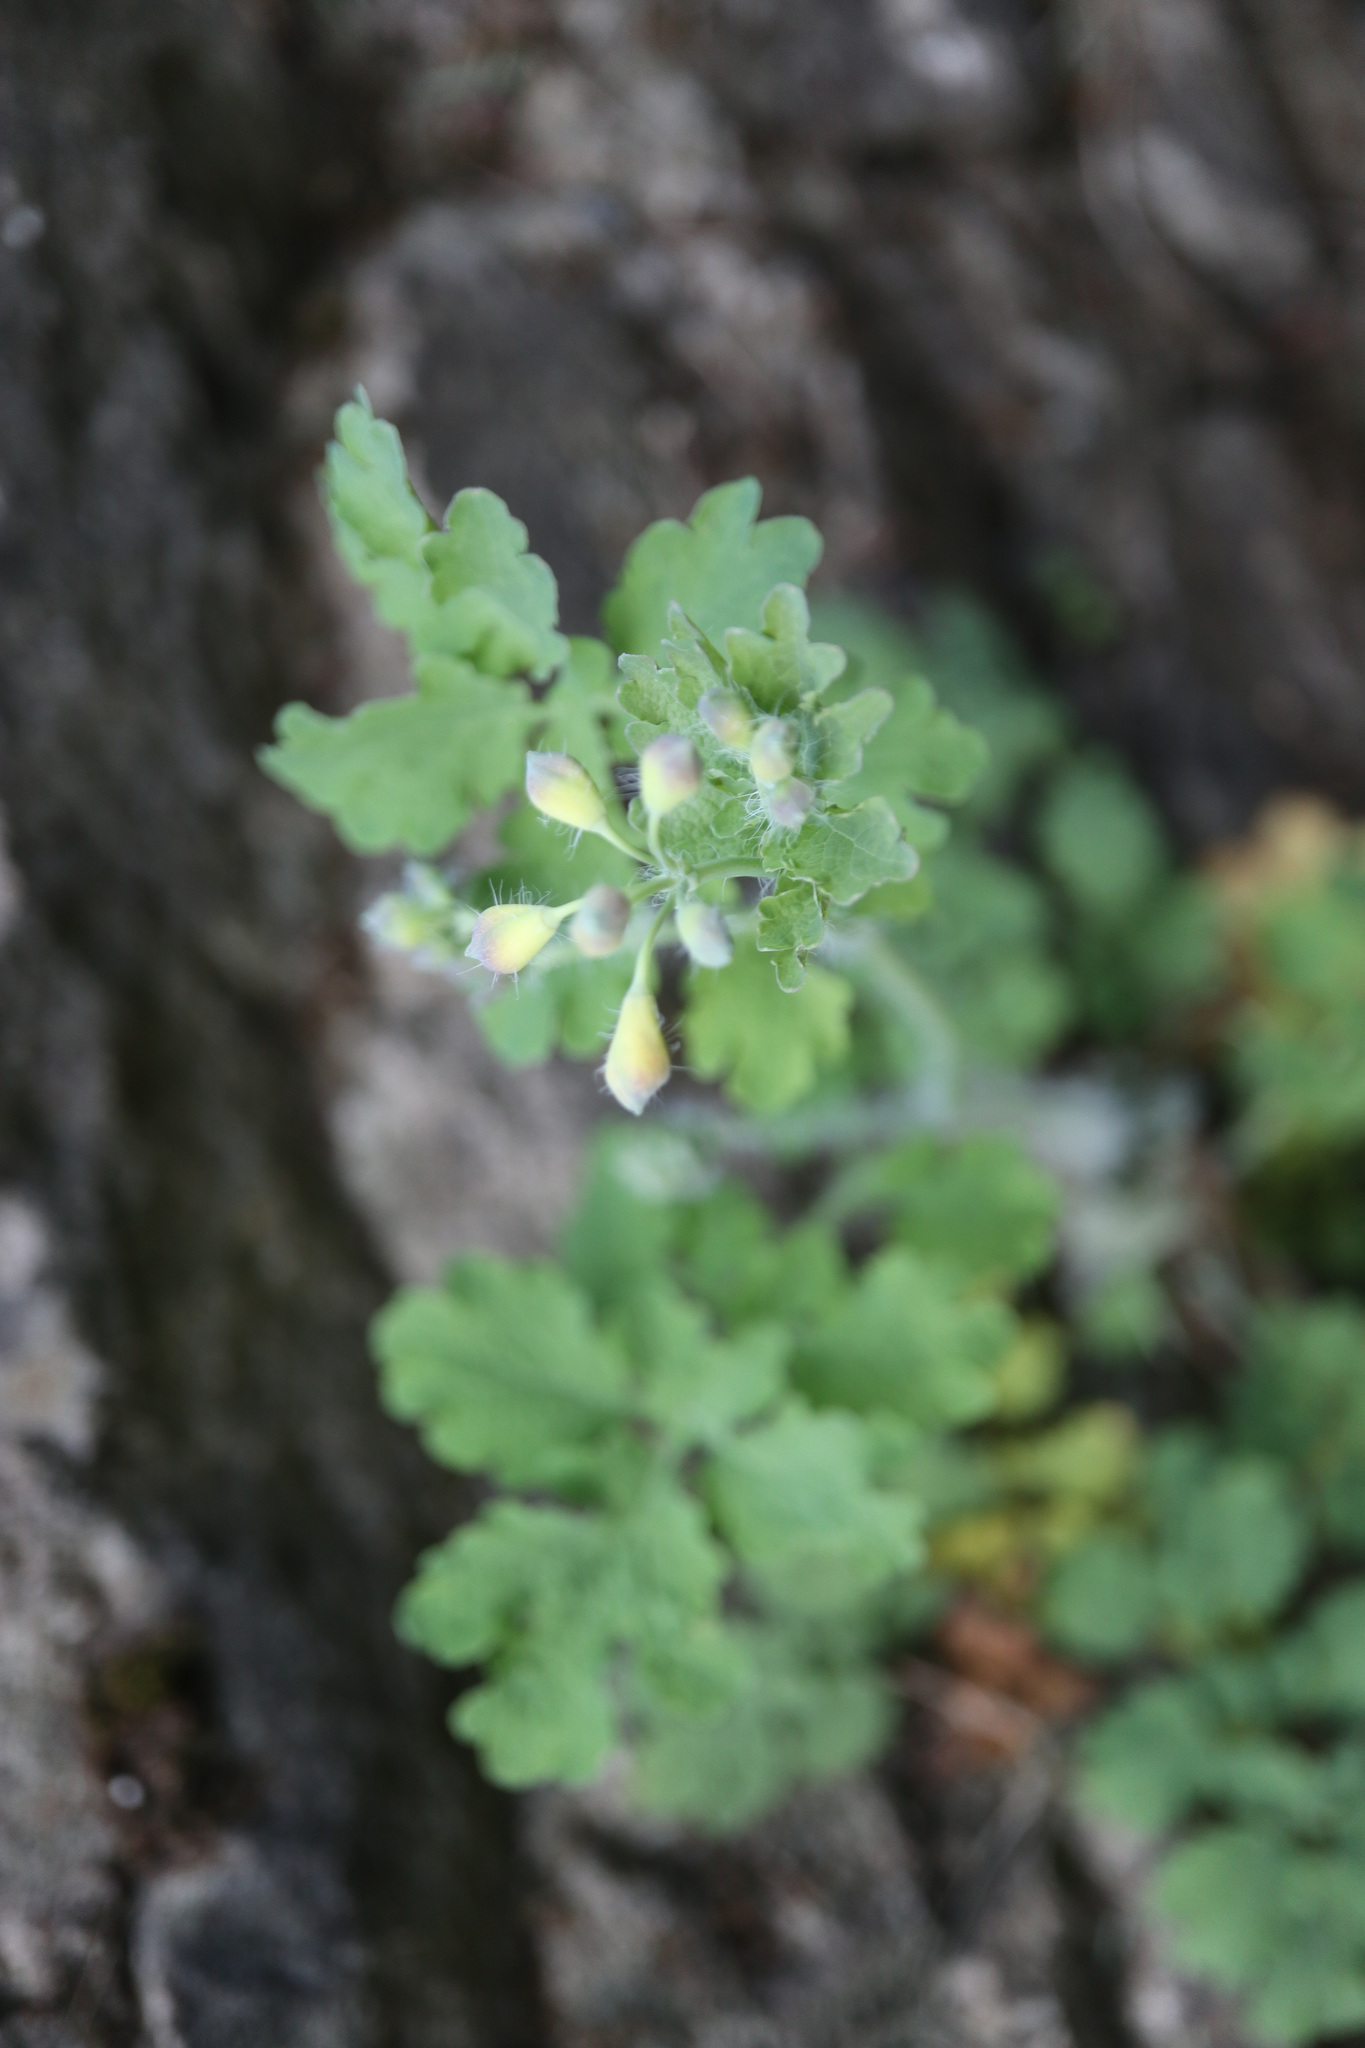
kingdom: Plantae
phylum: Tracheophyta
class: Magnoliopsida
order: Ranunculales
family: Papaveraceae
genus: Chelidonium
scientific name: Chelidonium majus
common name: Greater celandine
